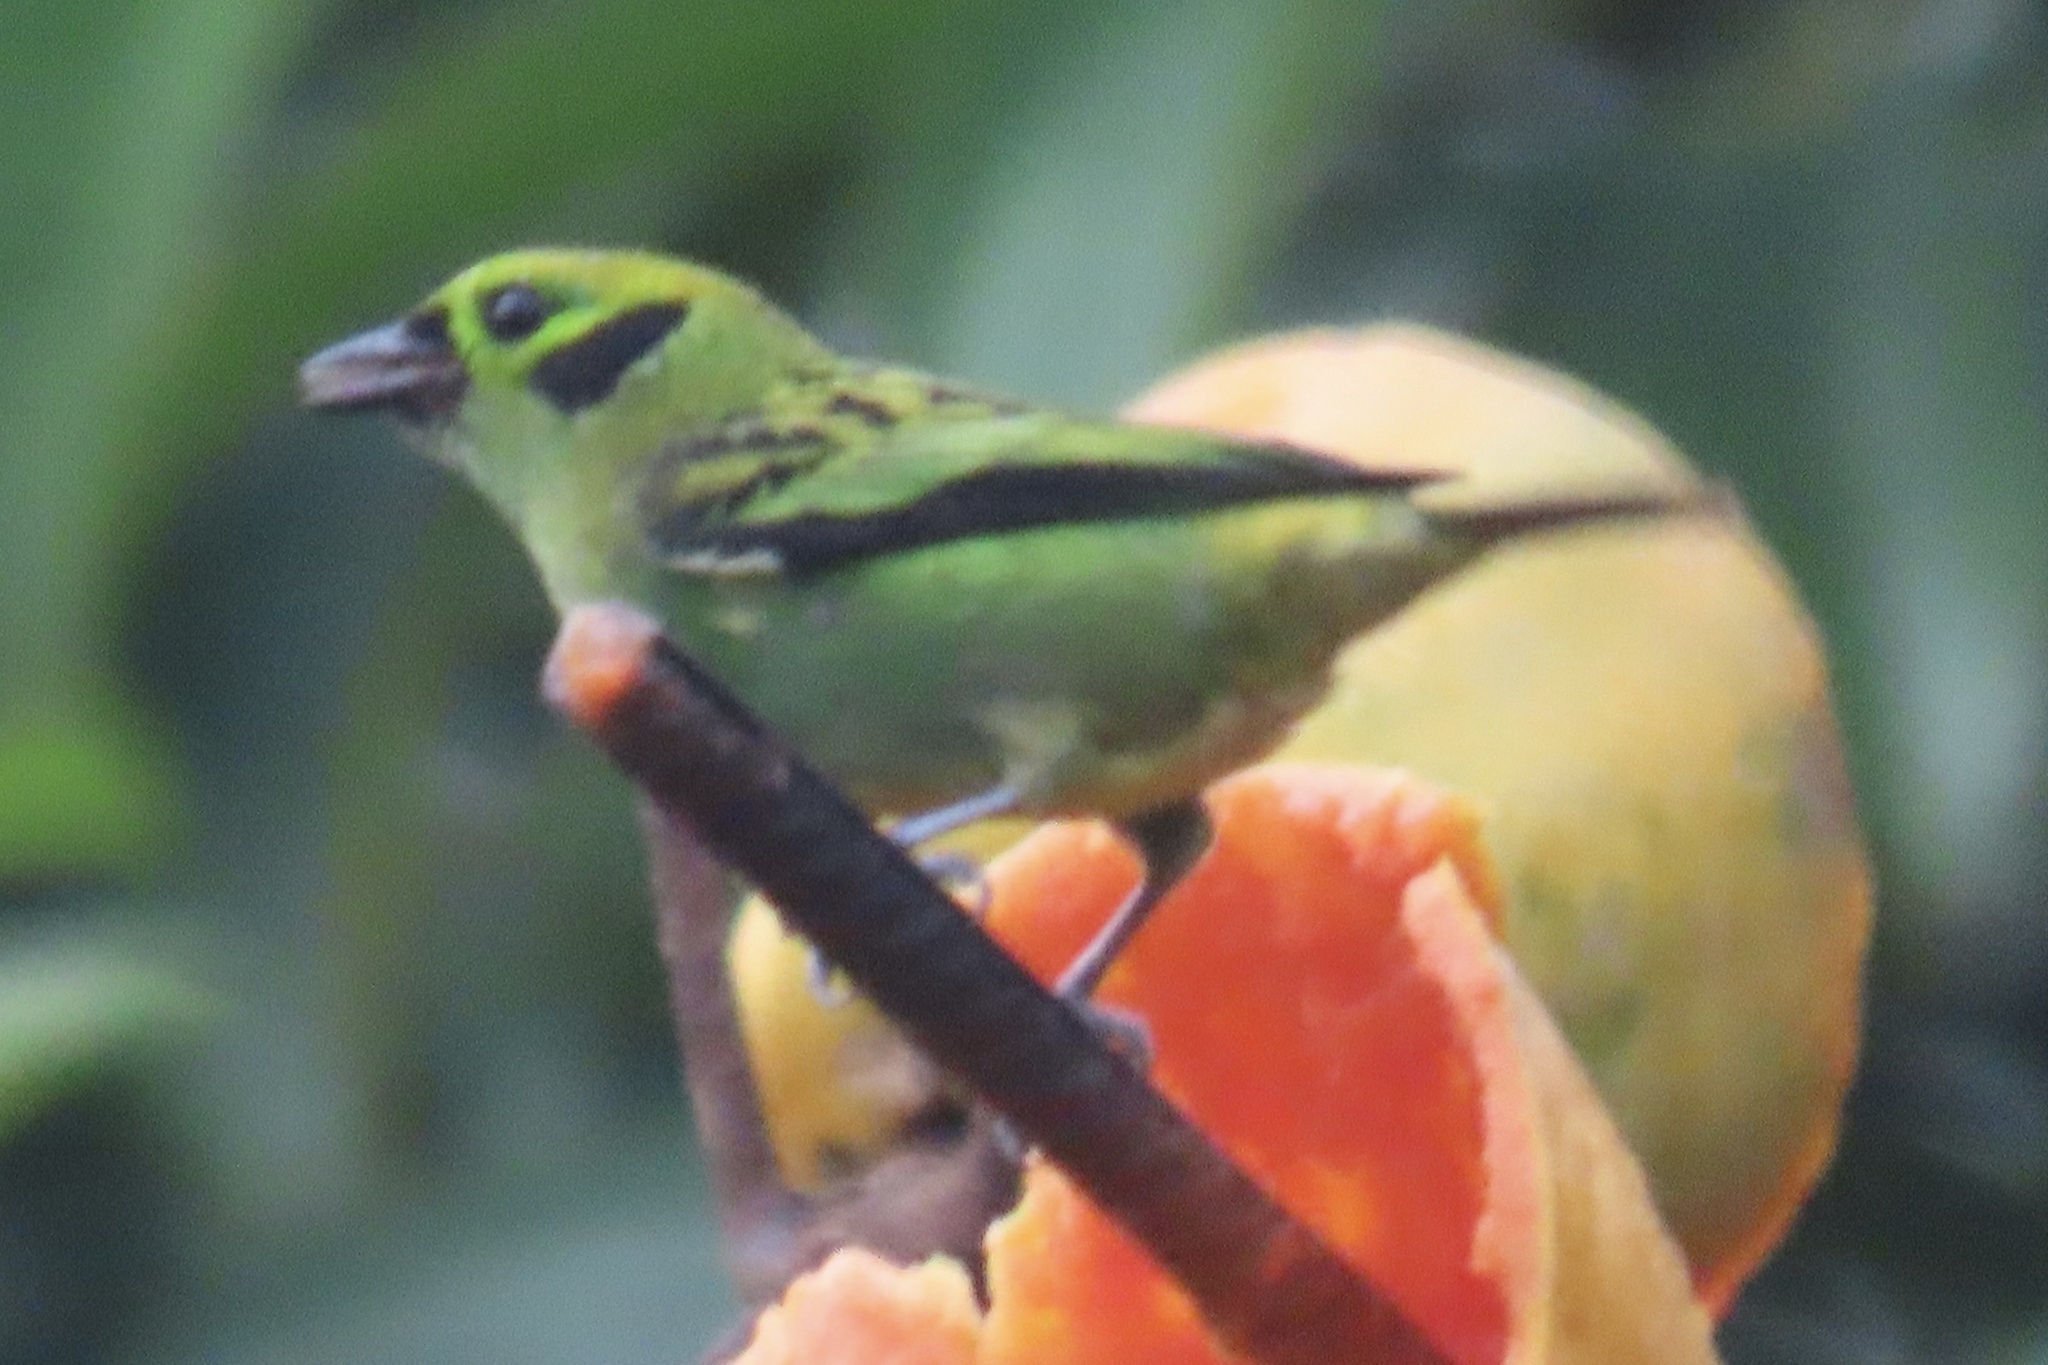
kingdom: Animalia
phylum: Chordata
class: Aves
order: Passeriformes
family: Thraupidae
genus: Tangara
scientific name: Tangara florida
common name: Emerald tanager
